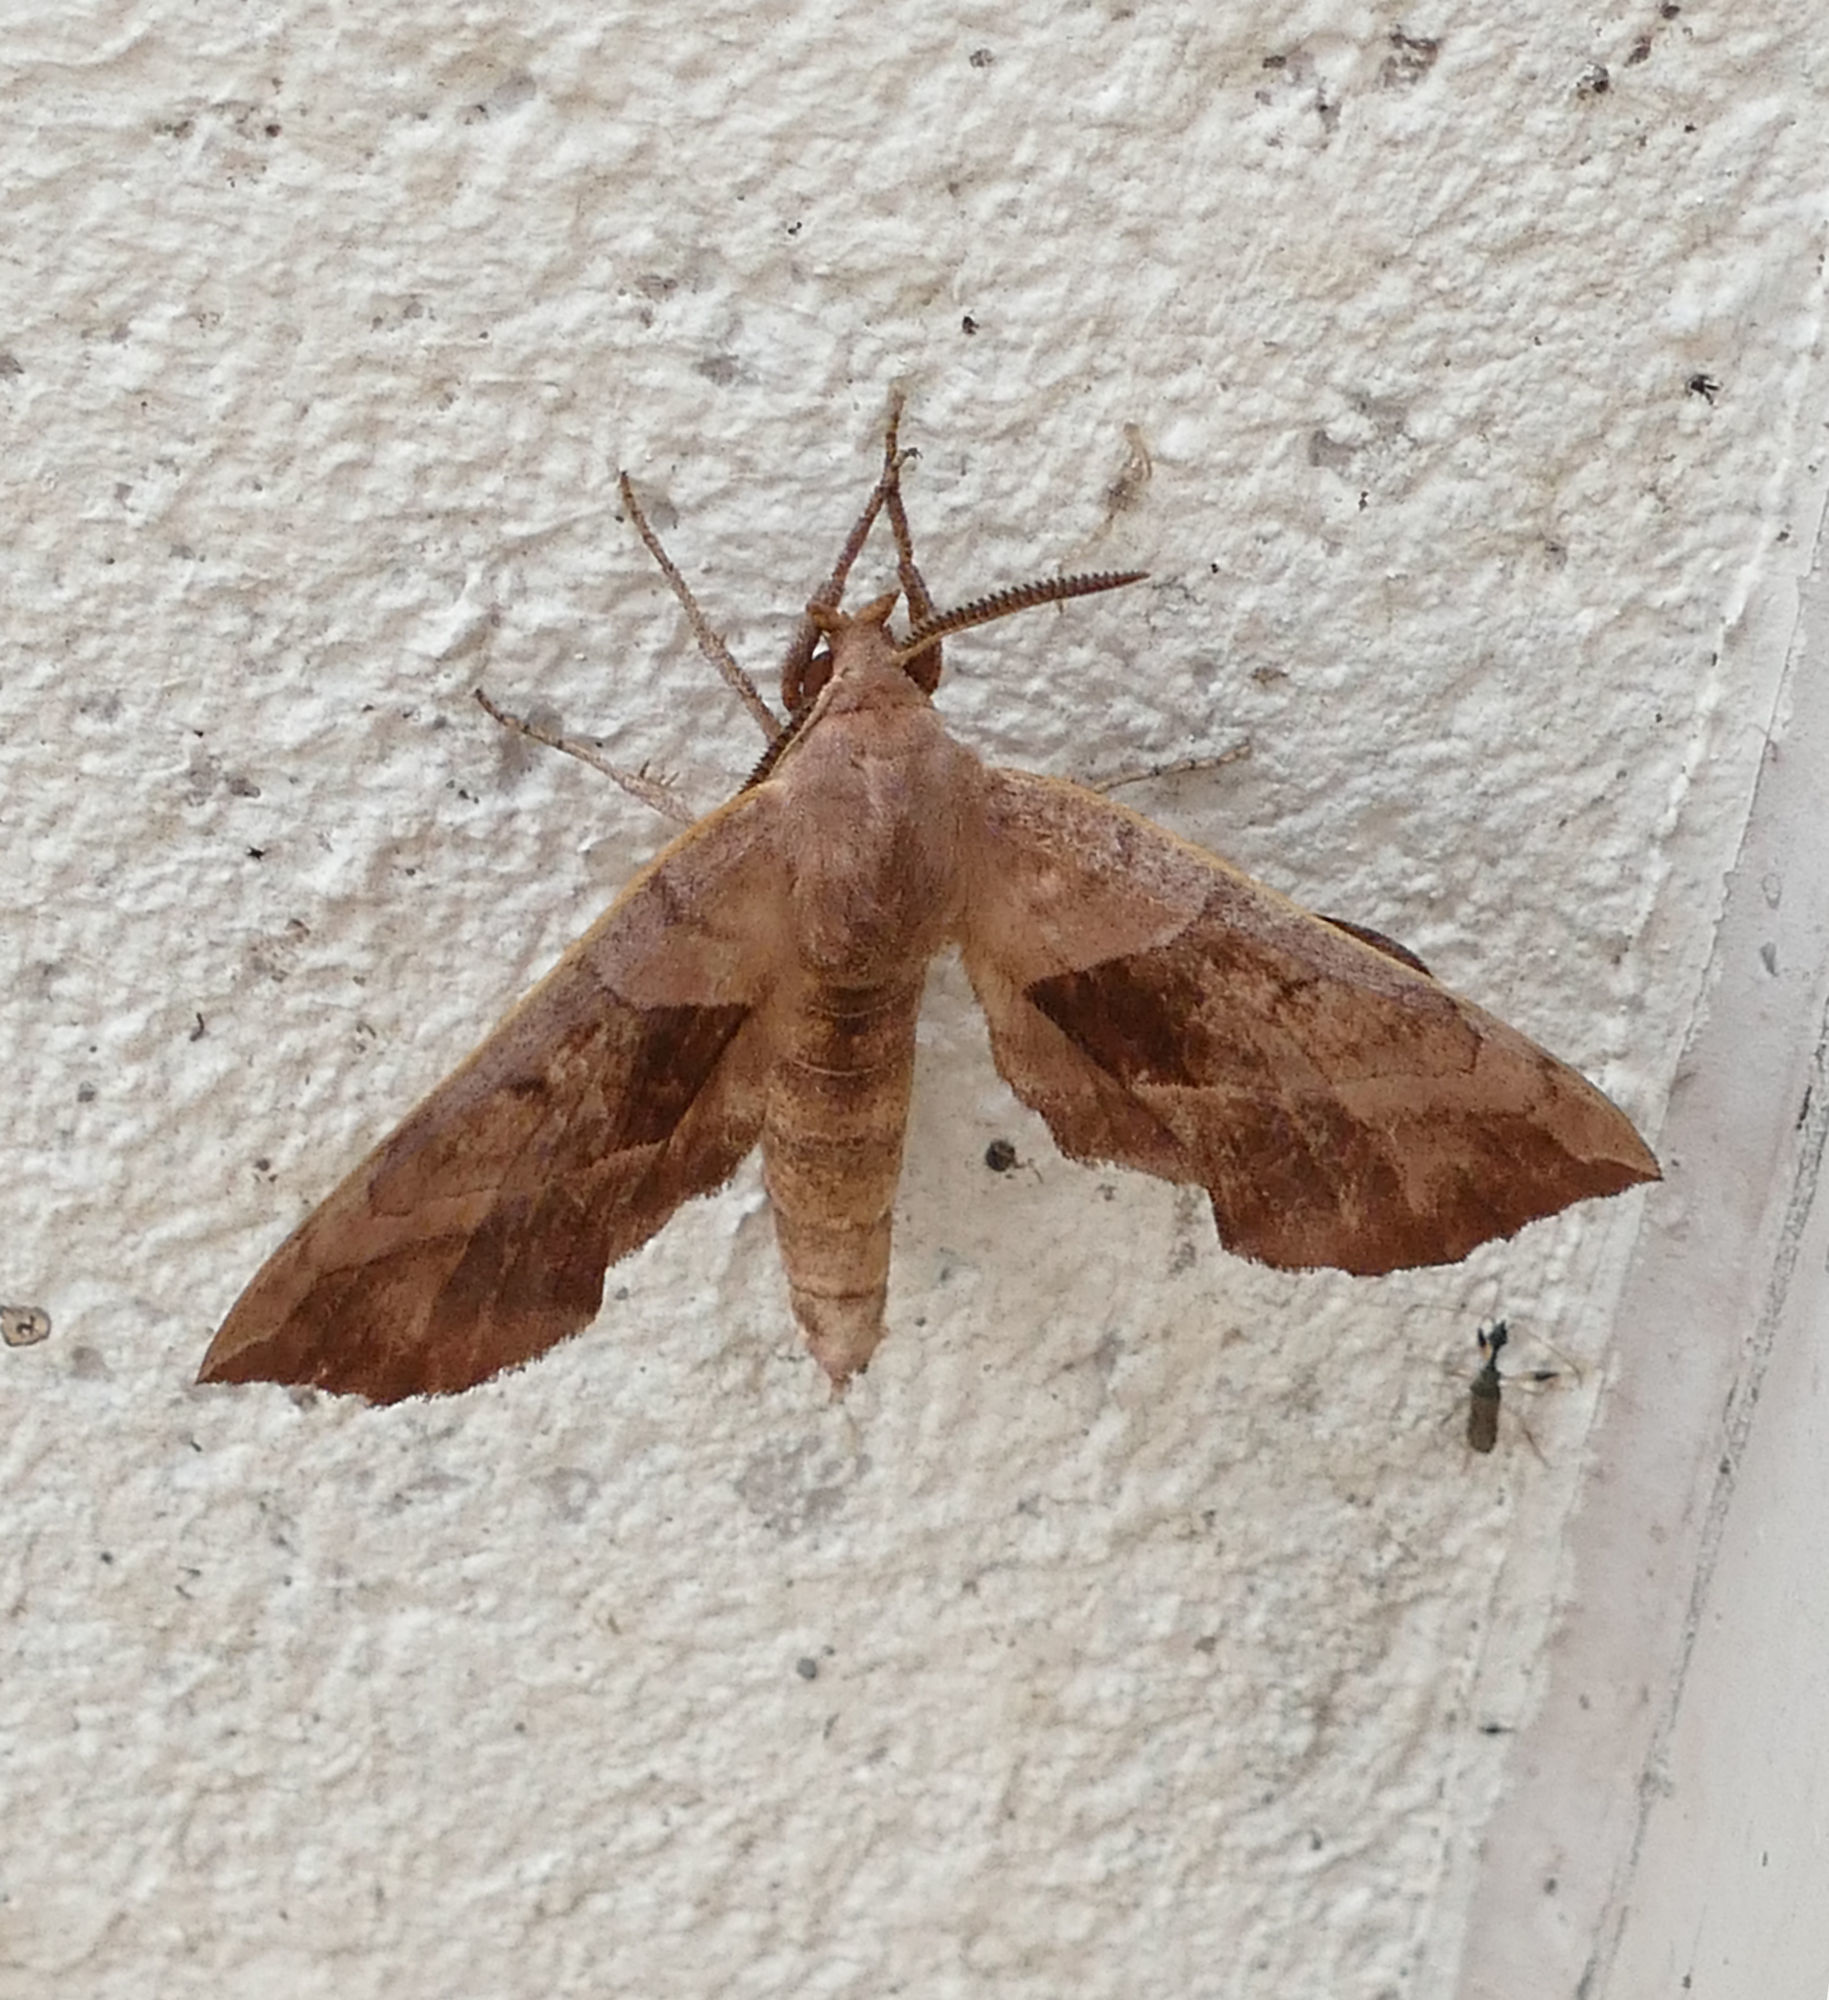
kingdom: Animalia
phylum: Arthropoda
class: Insecta
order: Lepidoptera
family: Sphingidae
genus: Amorpha
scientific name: Amorpha juglandis
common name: Walnut sphinx
